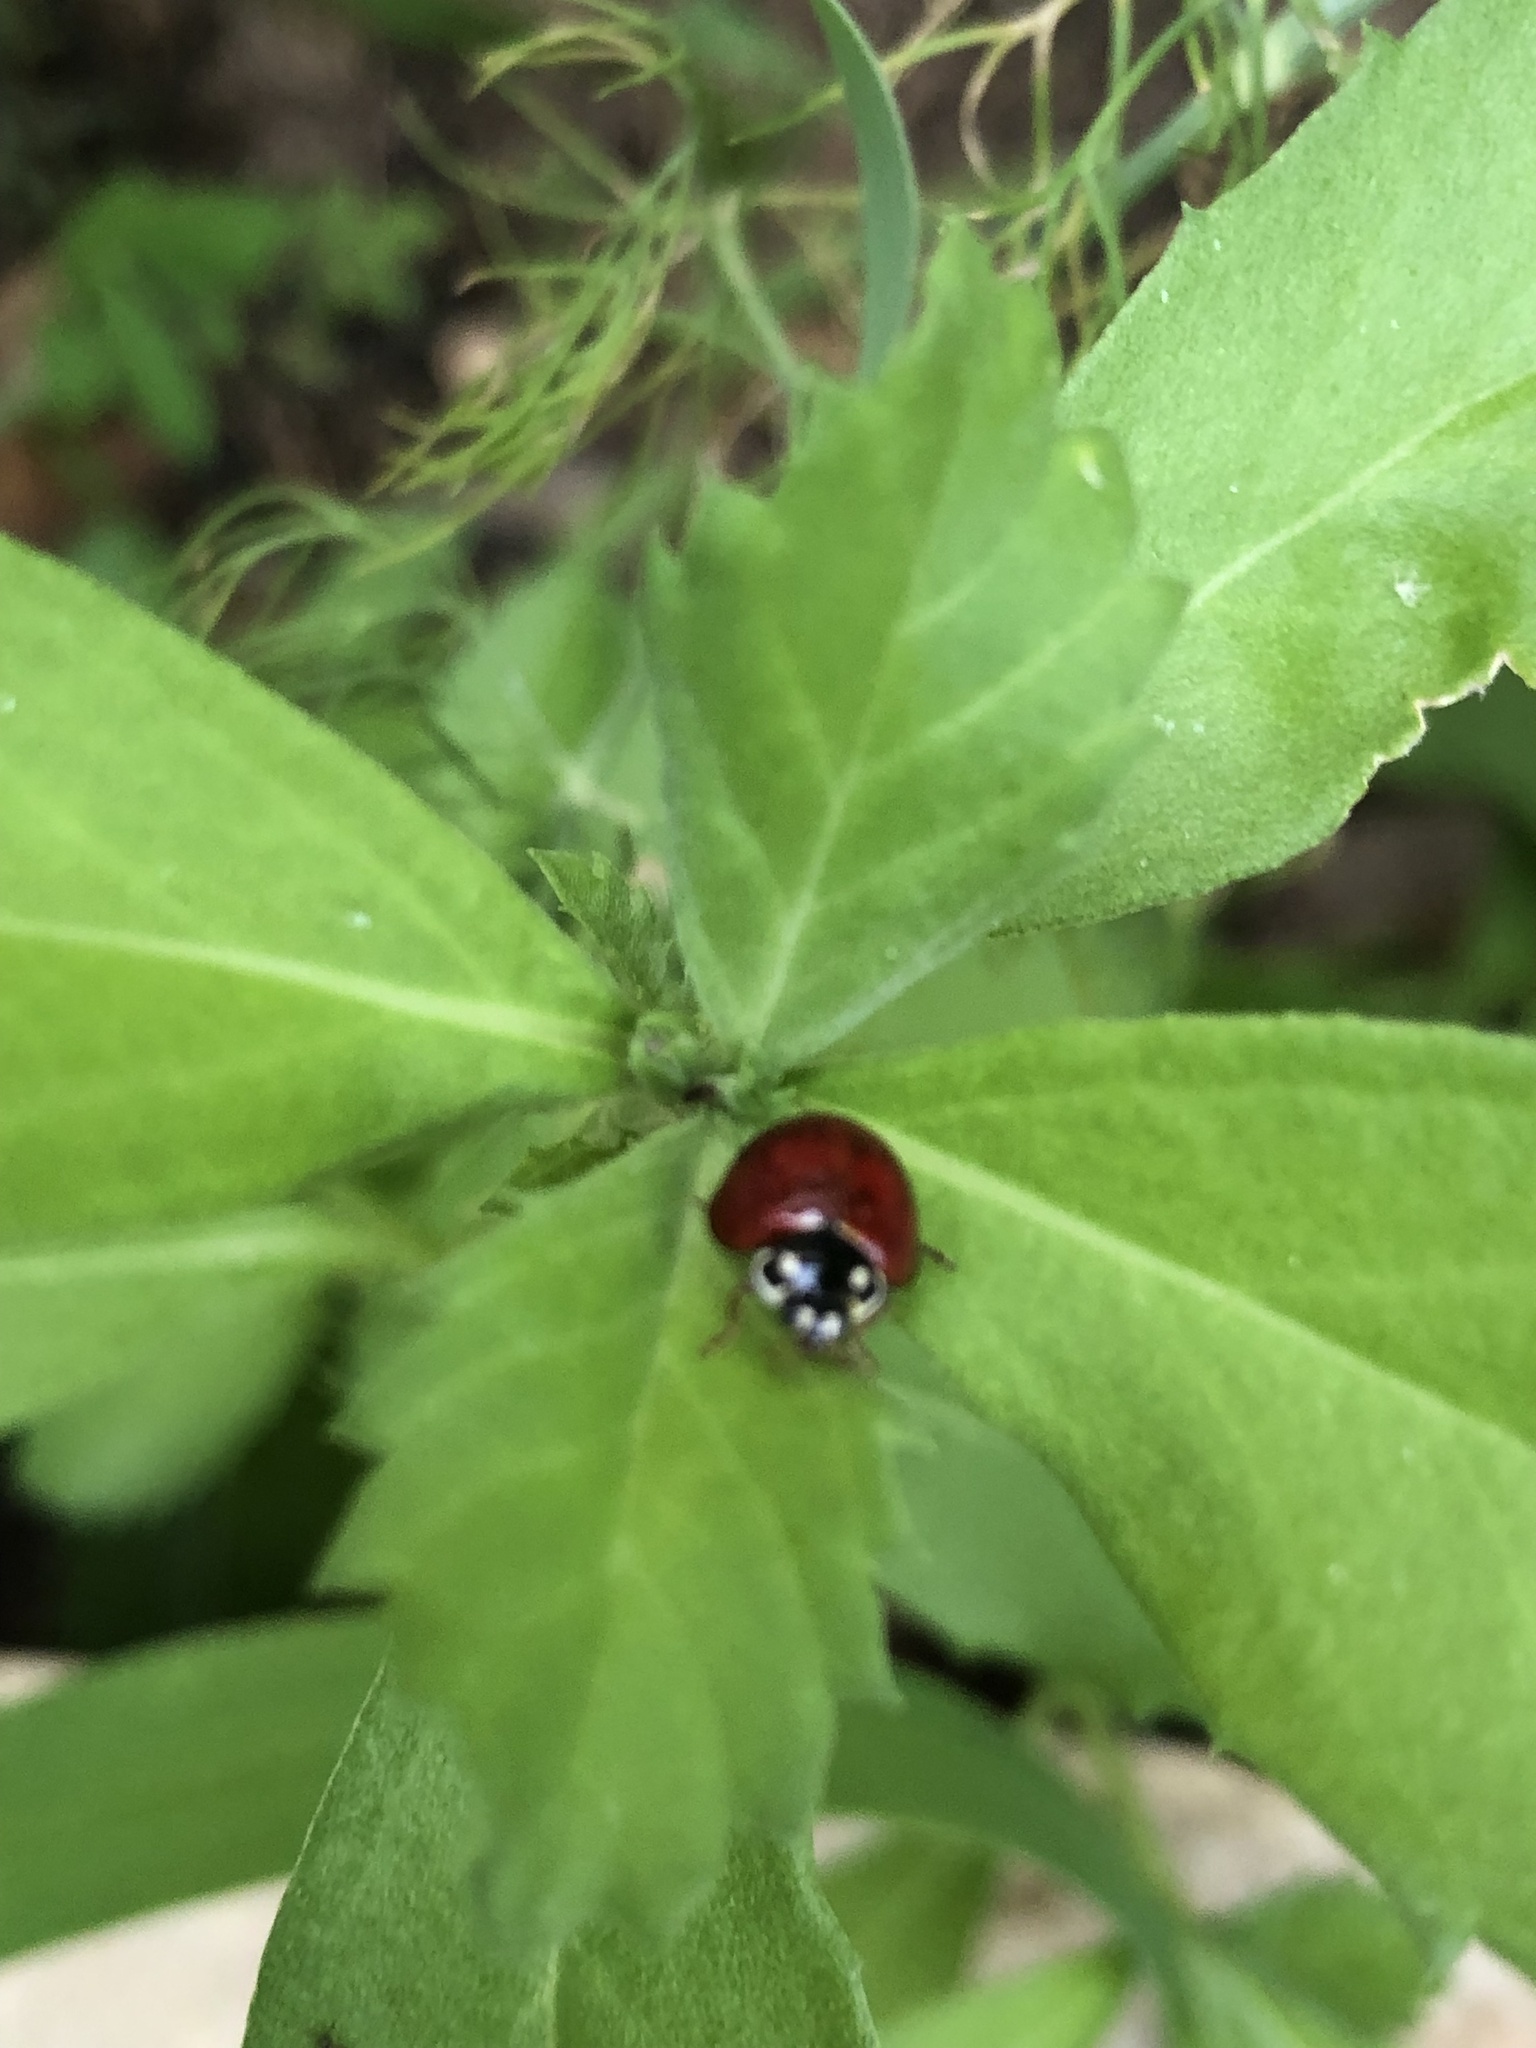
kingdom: Animalia
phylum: Arthropoda
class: Insecta
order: Coleoptera
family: Coccinellidae
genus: Cycloneda
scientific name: Cycloneda sanguinea
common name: Ladybird beetle
